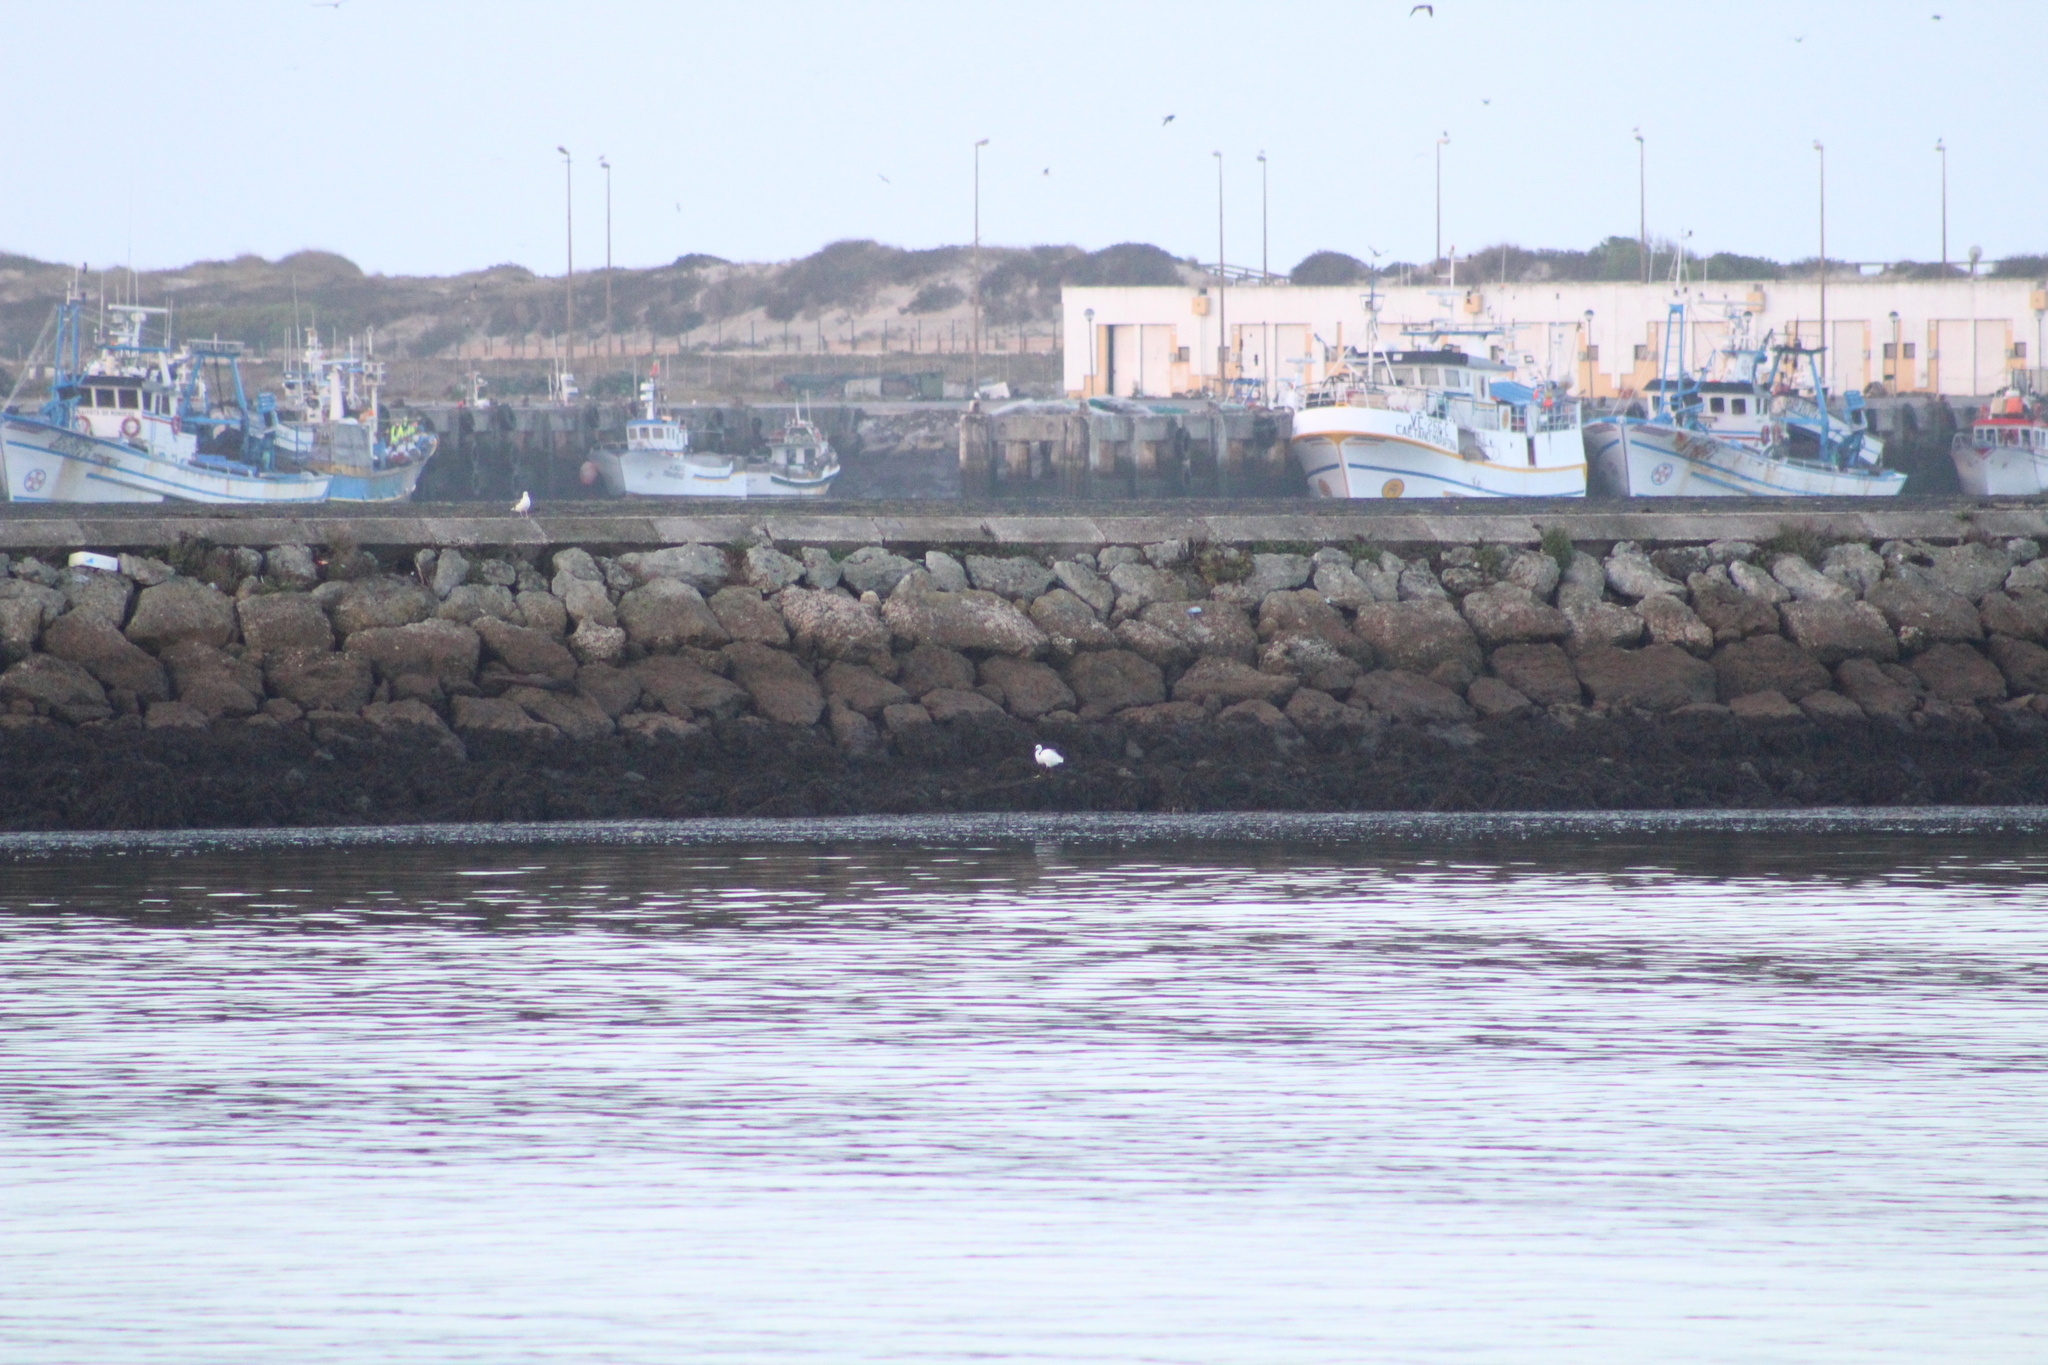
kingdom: Animalia
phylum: Chordata
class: Aves
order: Pelecaniformes
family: Ardeidae
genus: Egretta
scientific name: Egretta garzetta
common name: Little egret
